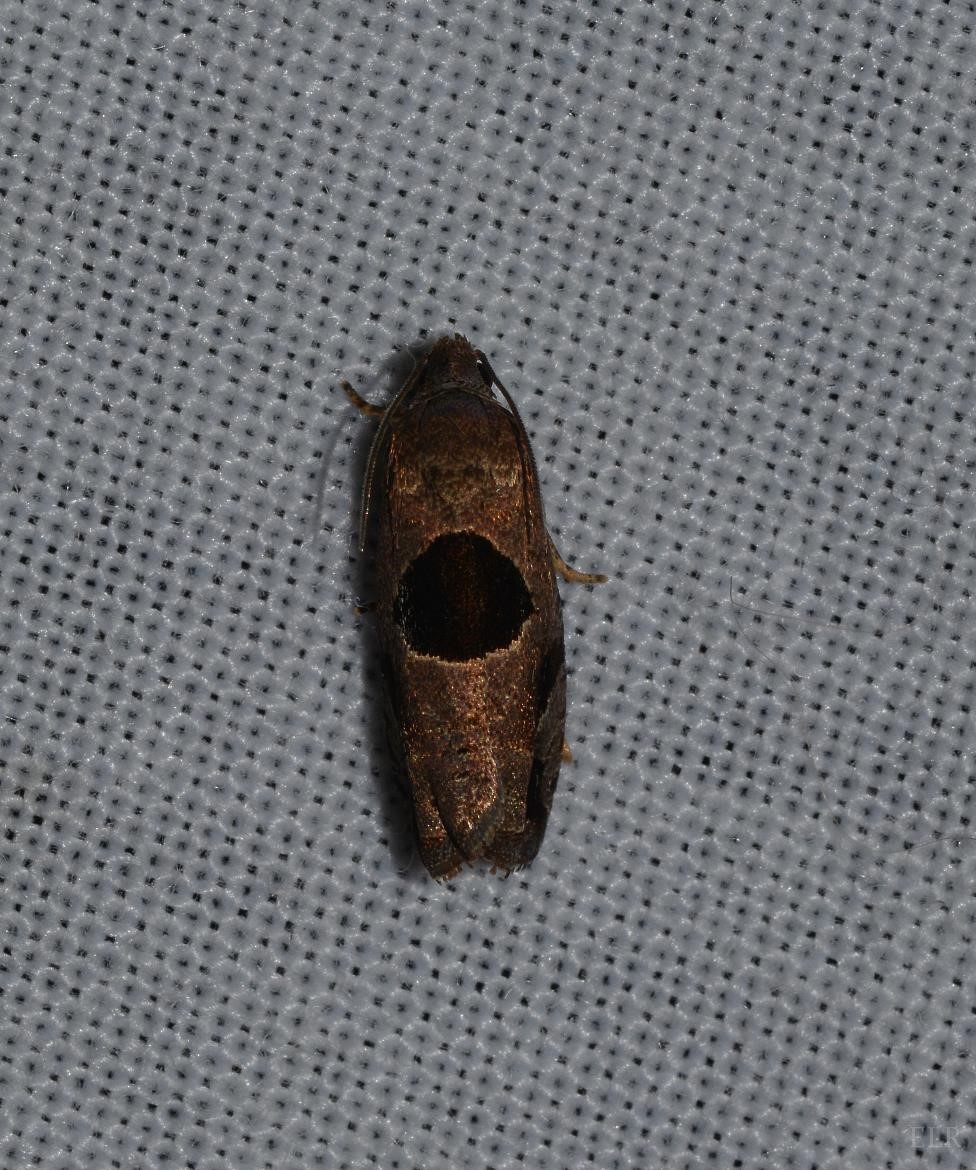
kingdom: Animalia
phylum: Arthropoda
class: Insecta
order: Lepidoptera
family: Tortricidae
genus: Epiblema
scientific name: Epiblema brightonana
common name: Brighton's epiblema moth
